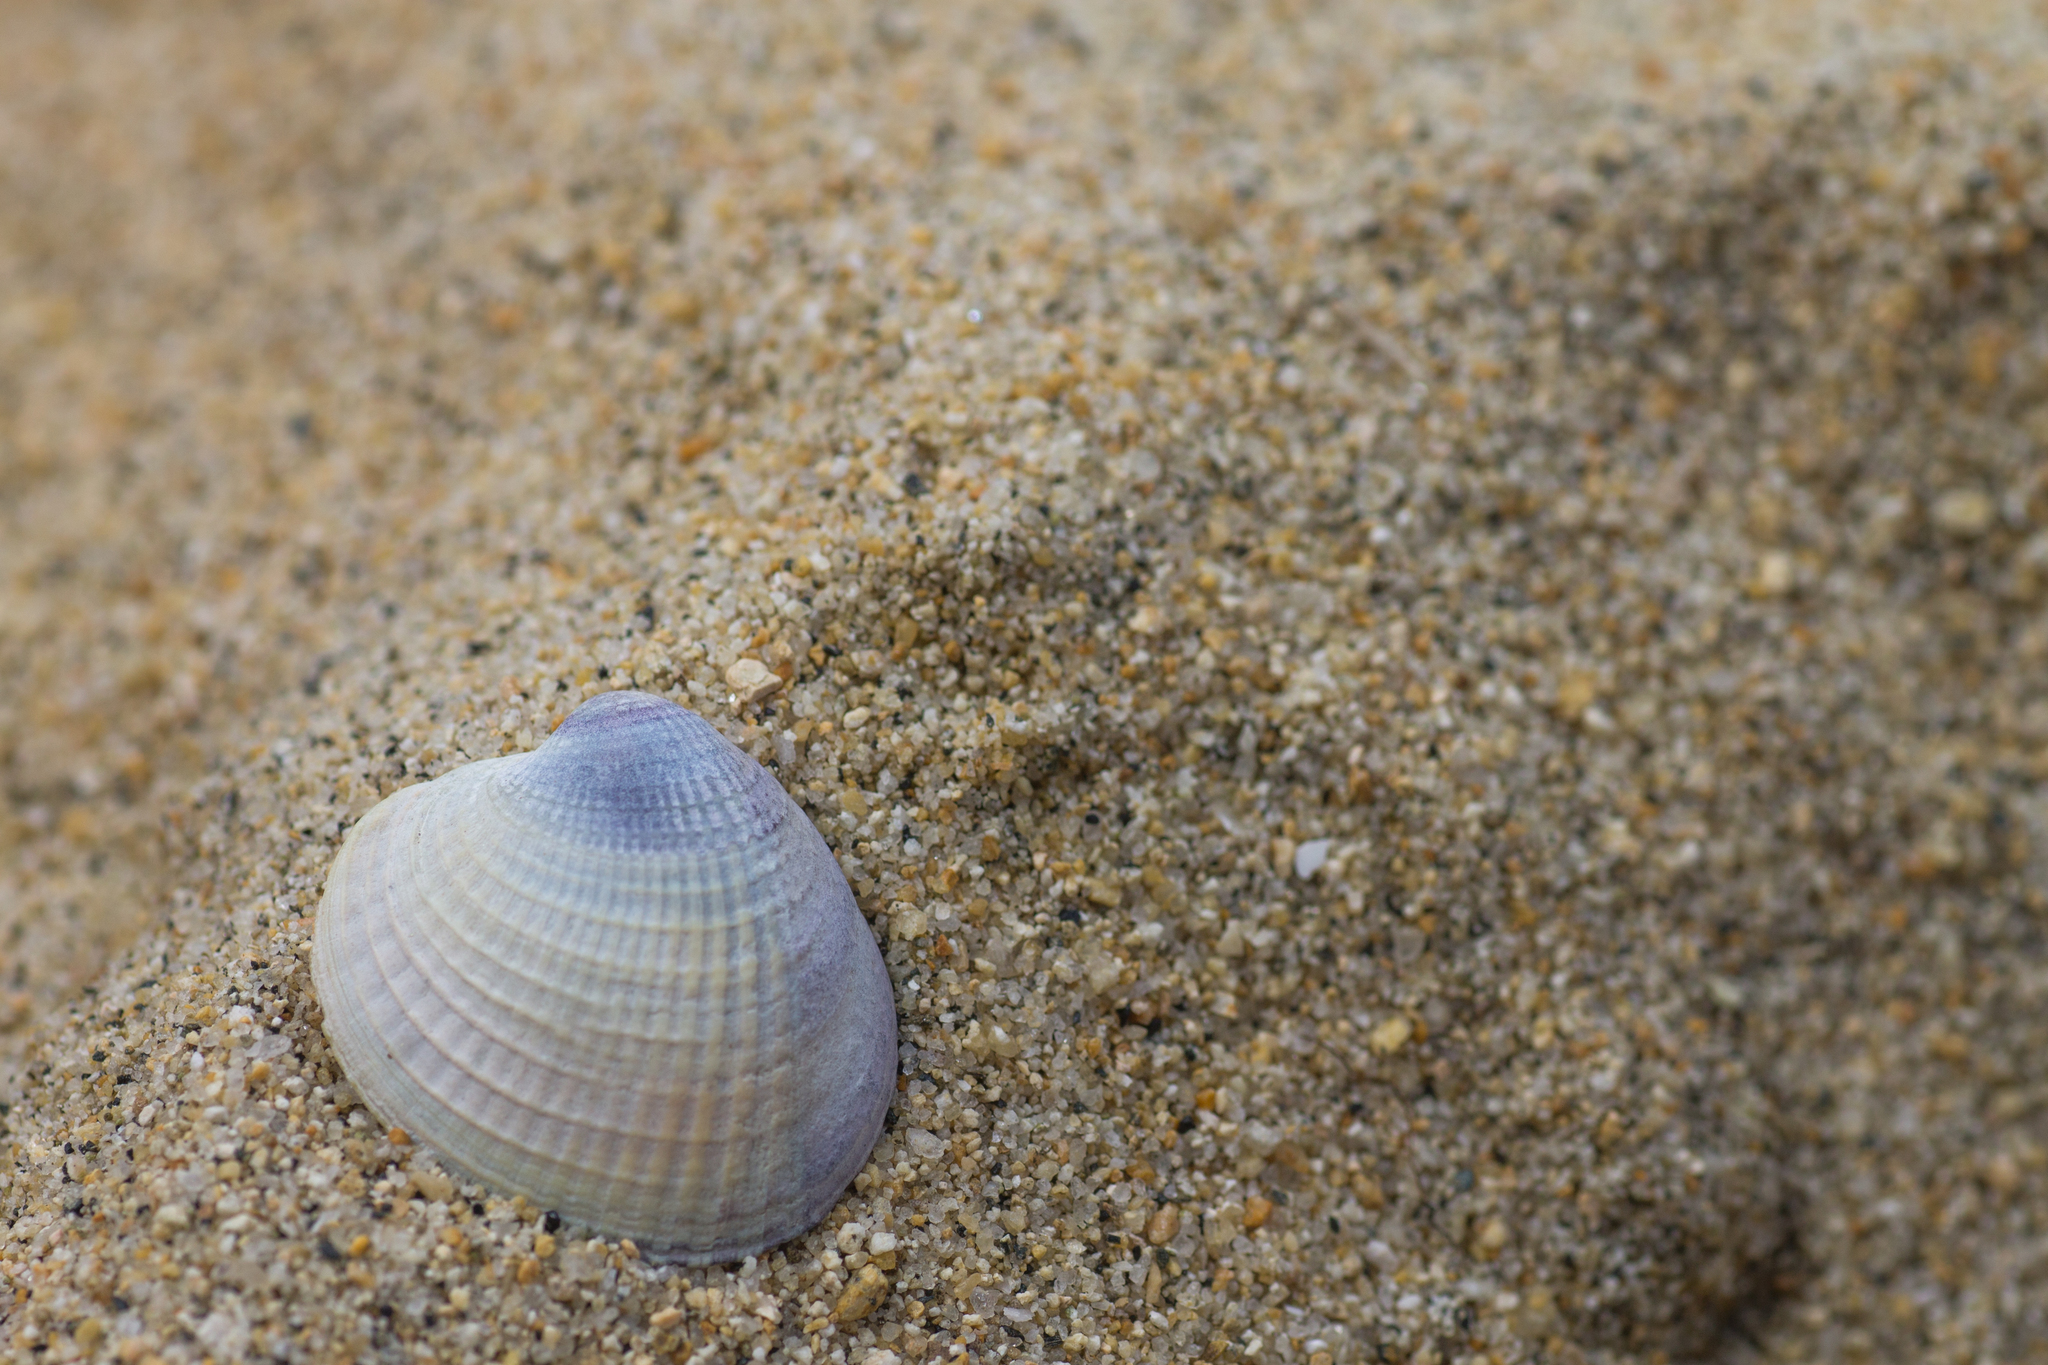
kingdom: Animalia
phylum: Mollusca
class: Bivalvia
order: Venerida
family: Veneridae
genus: Austrovenus
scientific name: Austrovenus stutchburyi
